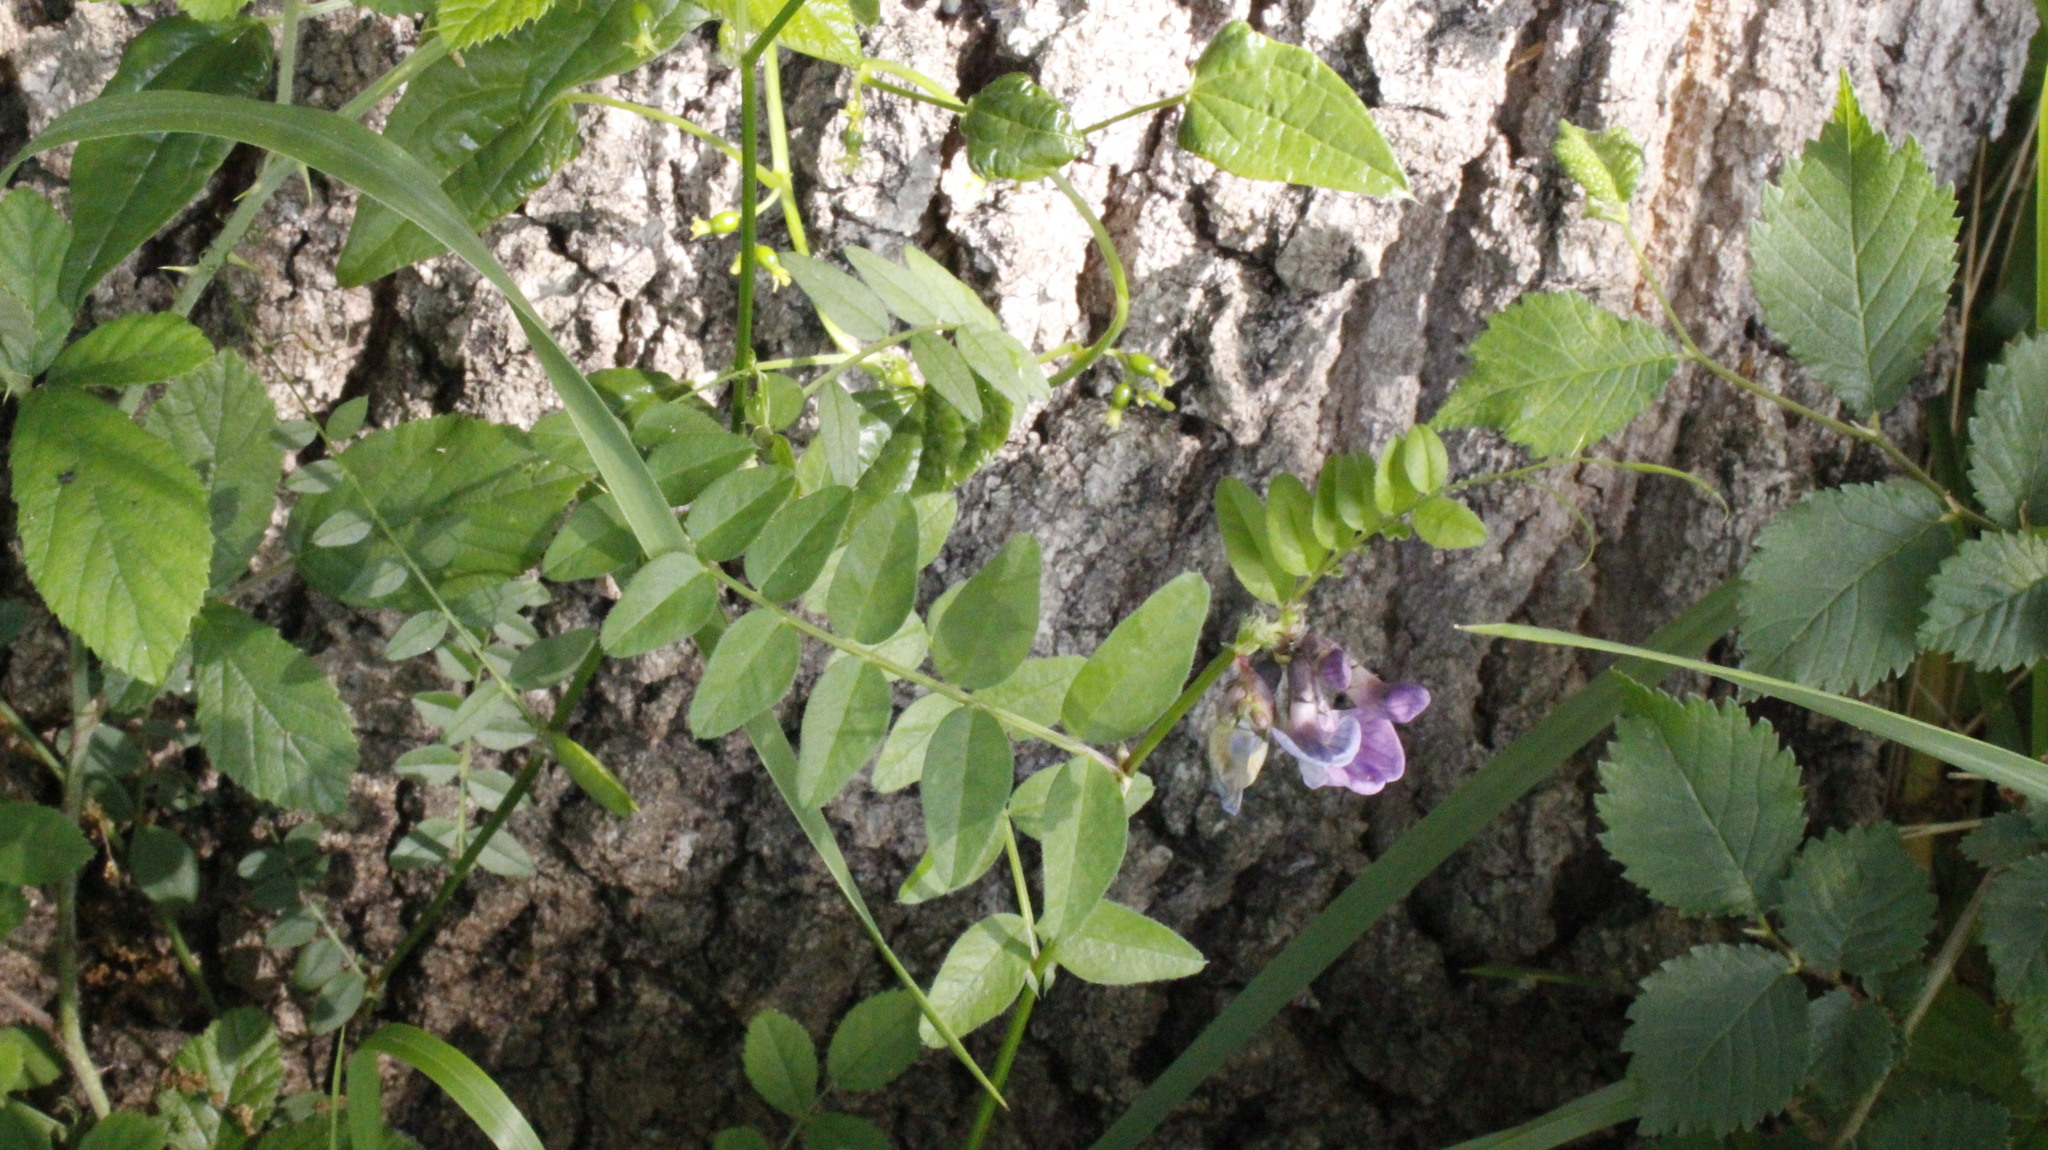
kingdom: Plantae
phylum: Tracheophyta
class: Magnoliopsida
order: Fabales
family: Fabaceae
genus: Vicia
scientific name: Vicia sepium
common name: Bush vetch
